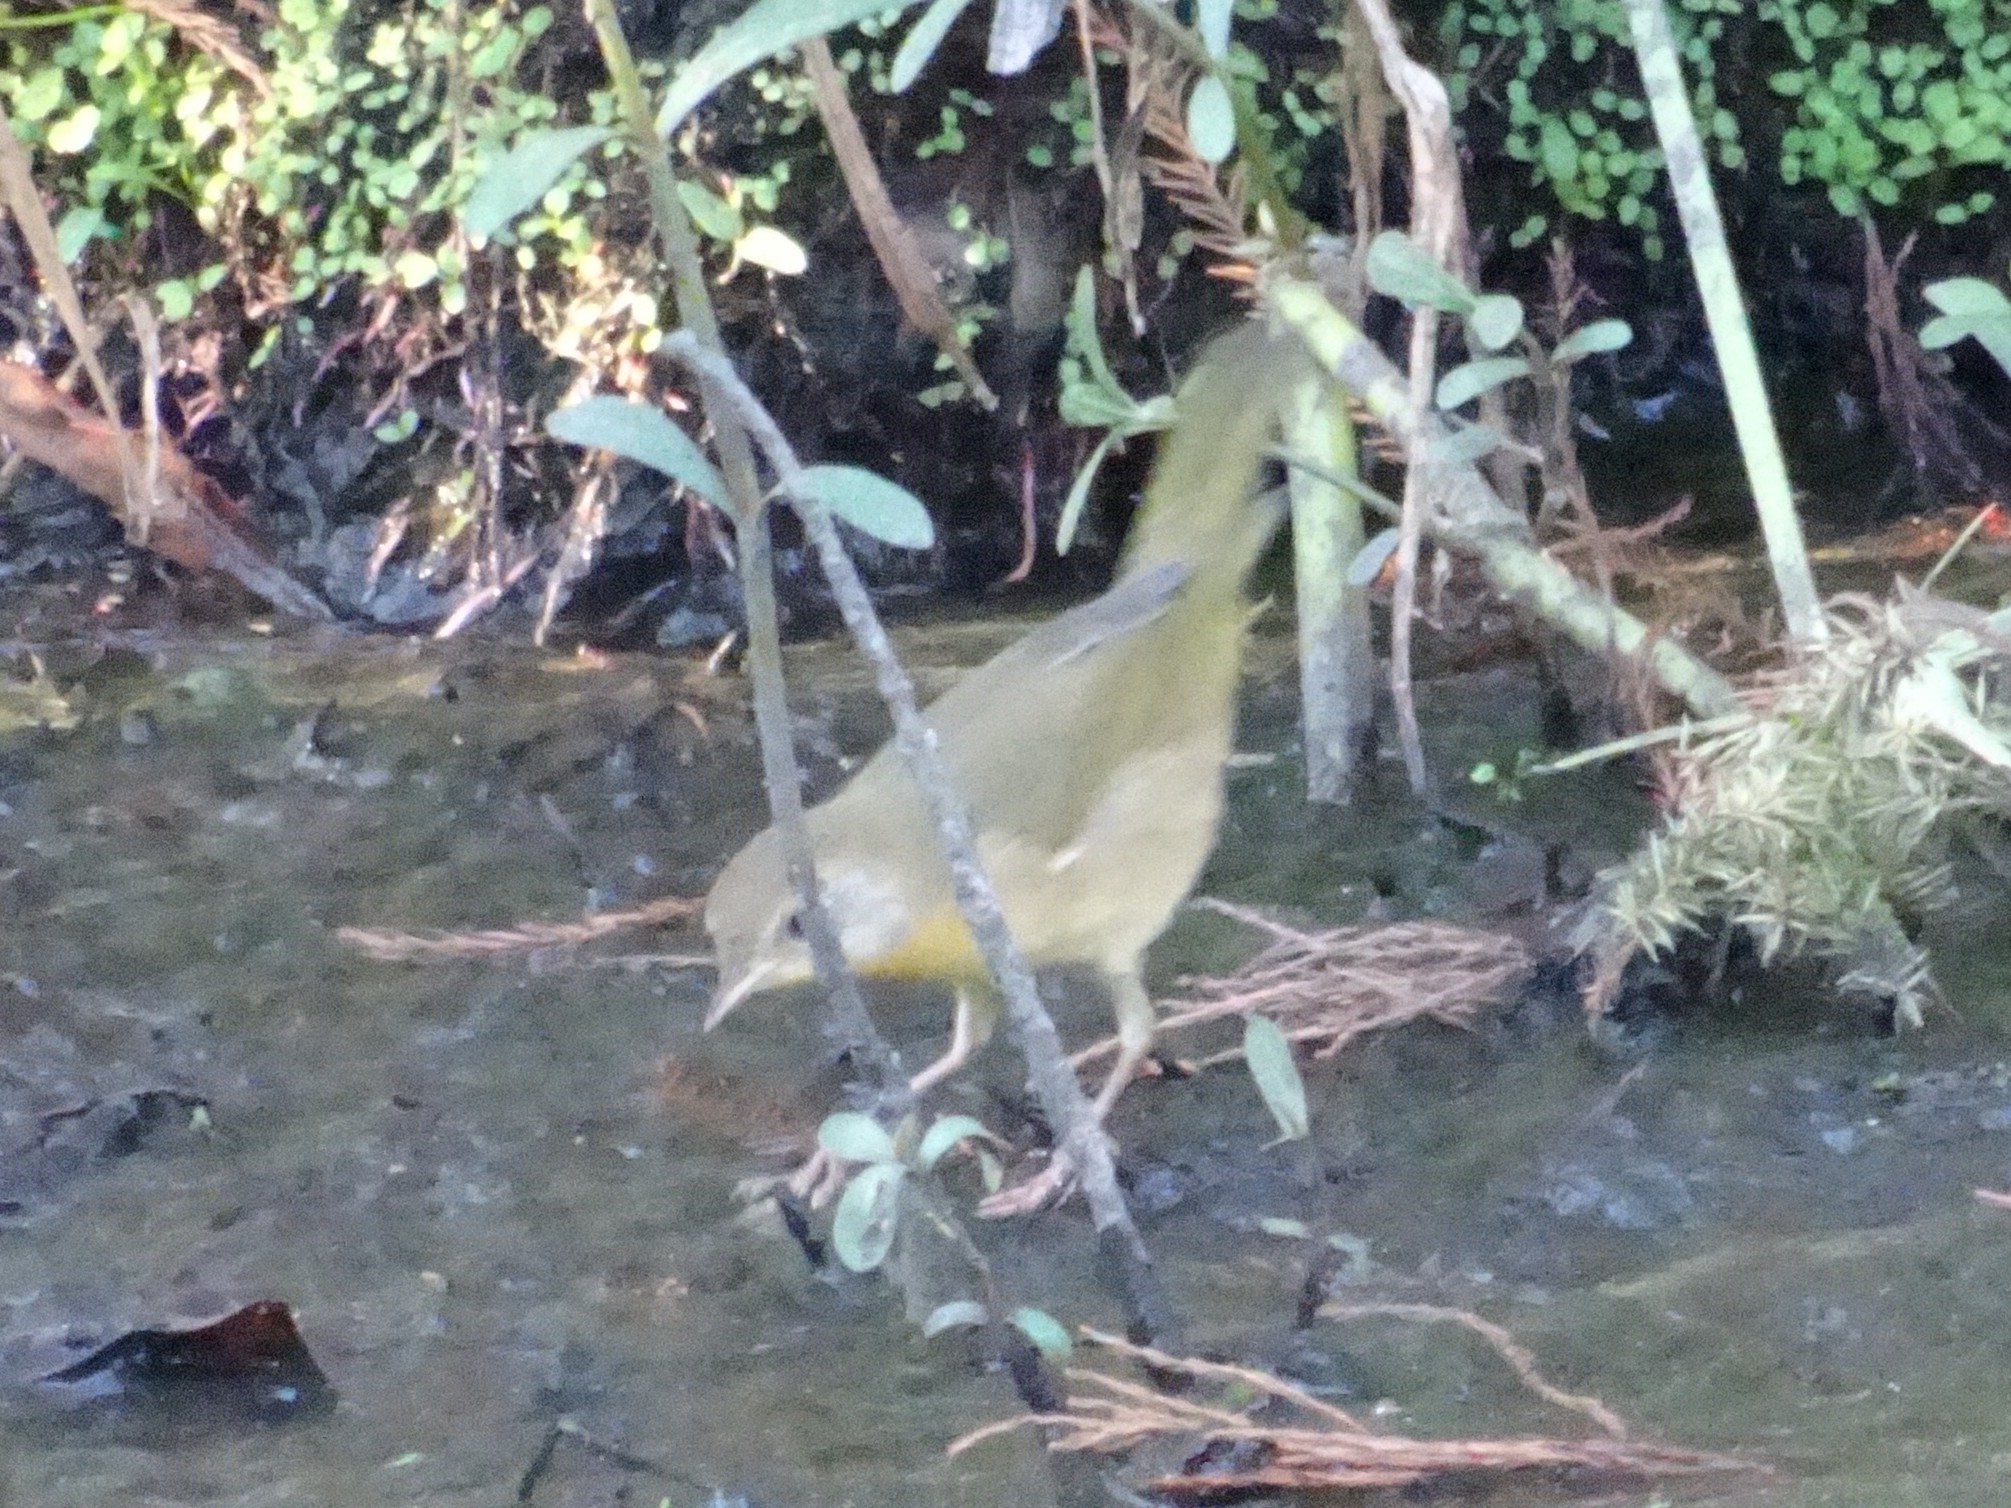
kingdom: Animalia
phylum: Chordata
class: Aves
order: Passeriformes
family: Parulidae
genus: Geothlypis
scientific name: Geothlypis trichas
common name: Common yellowthroat
